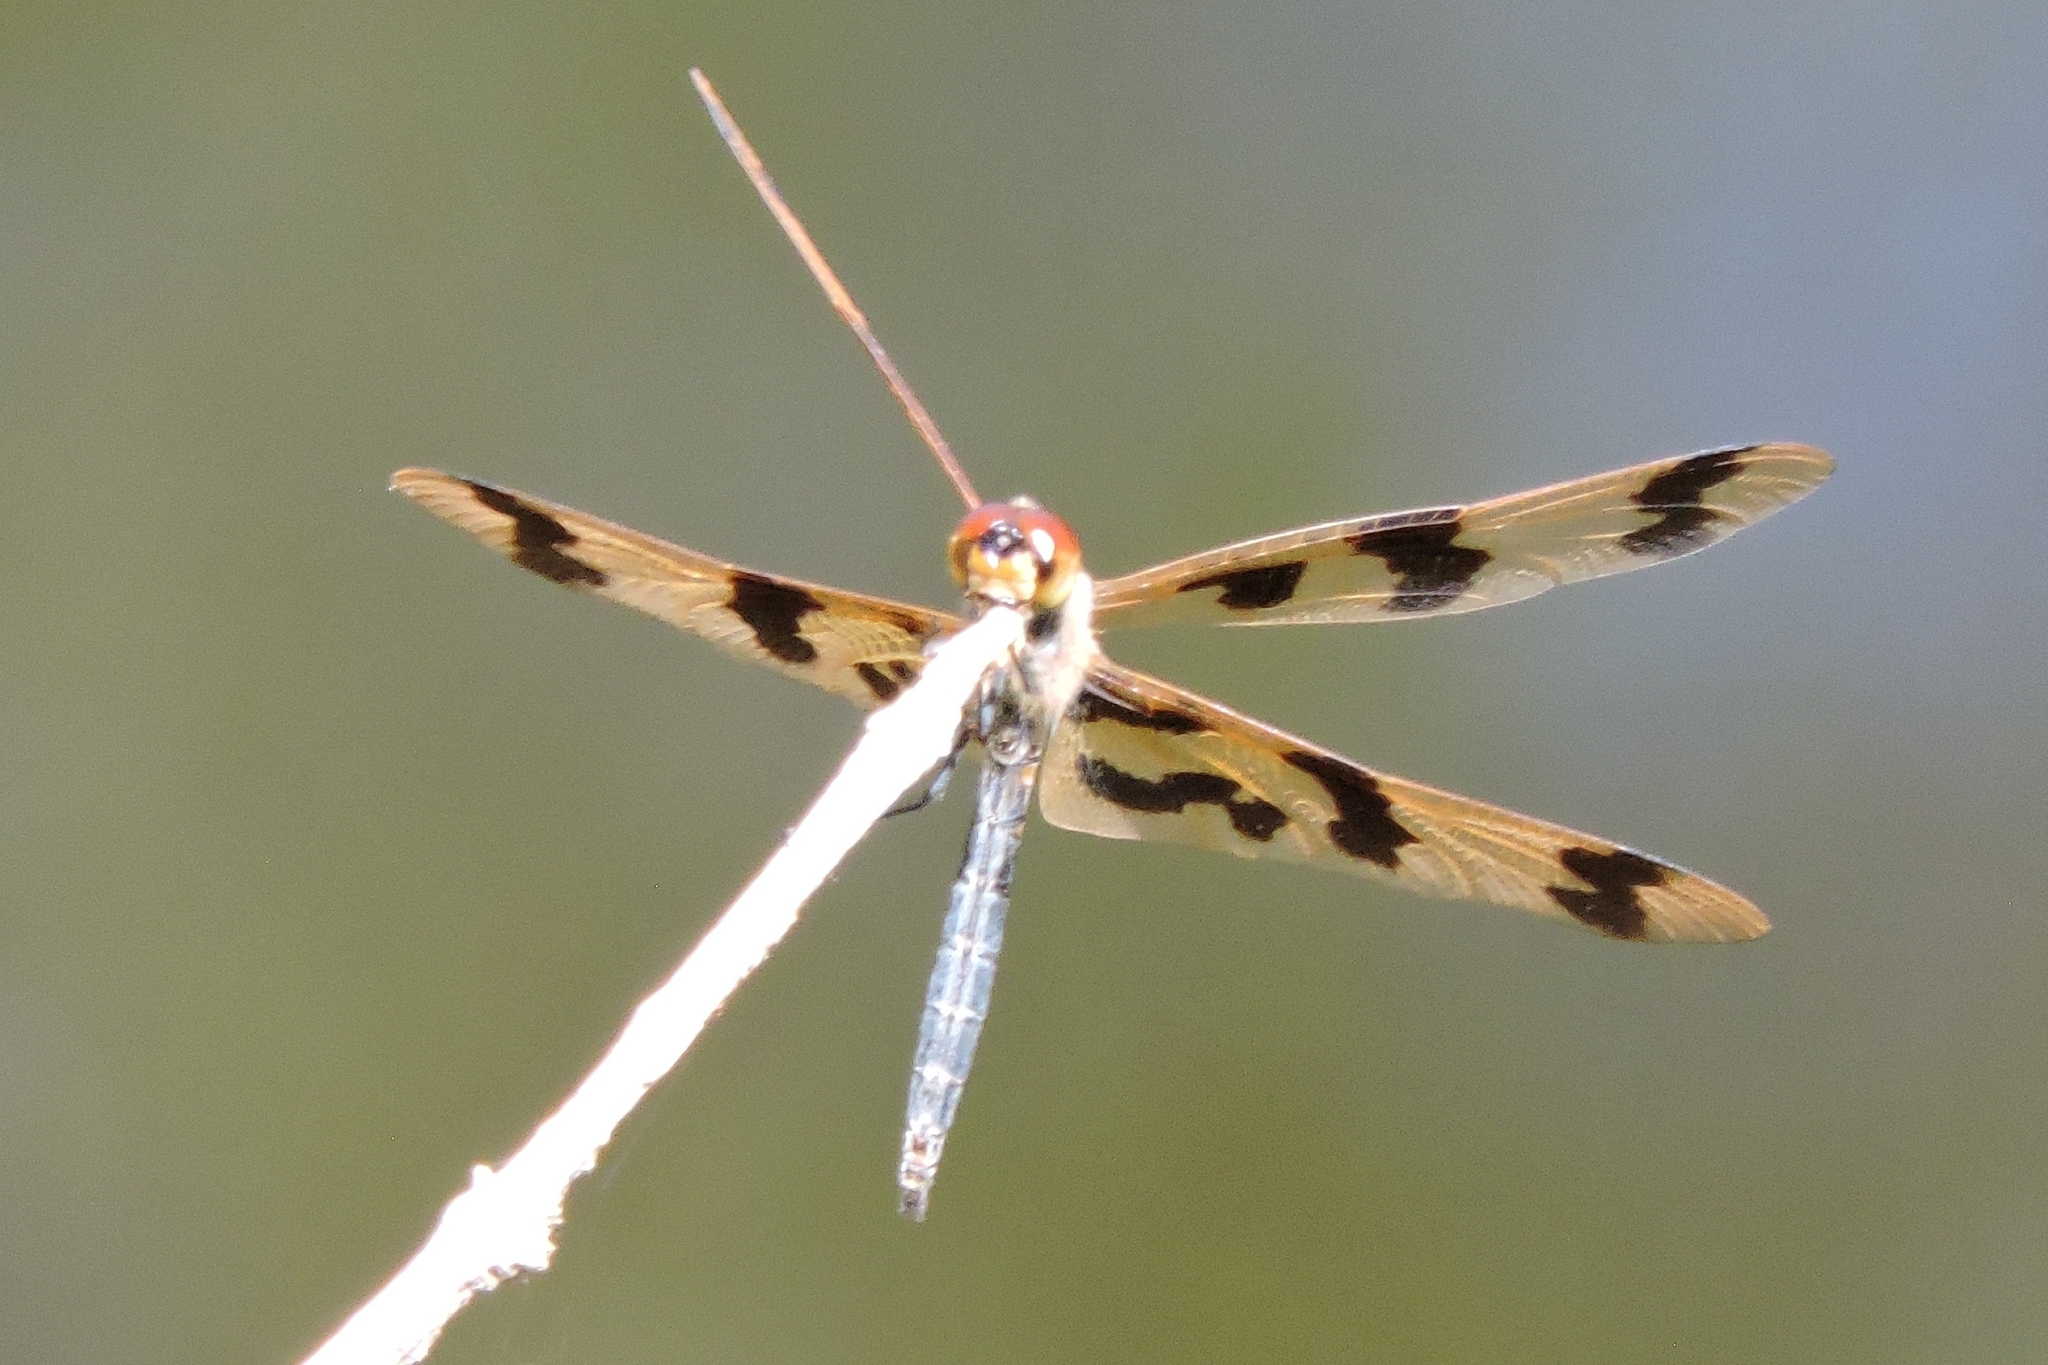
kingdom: Animalia
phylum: Arthropoda
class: Insecta
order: Odonata
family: Libellulidae
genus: Rhyothemis
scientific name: Rhyothemis graphiptera
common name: Graphic flutterer
